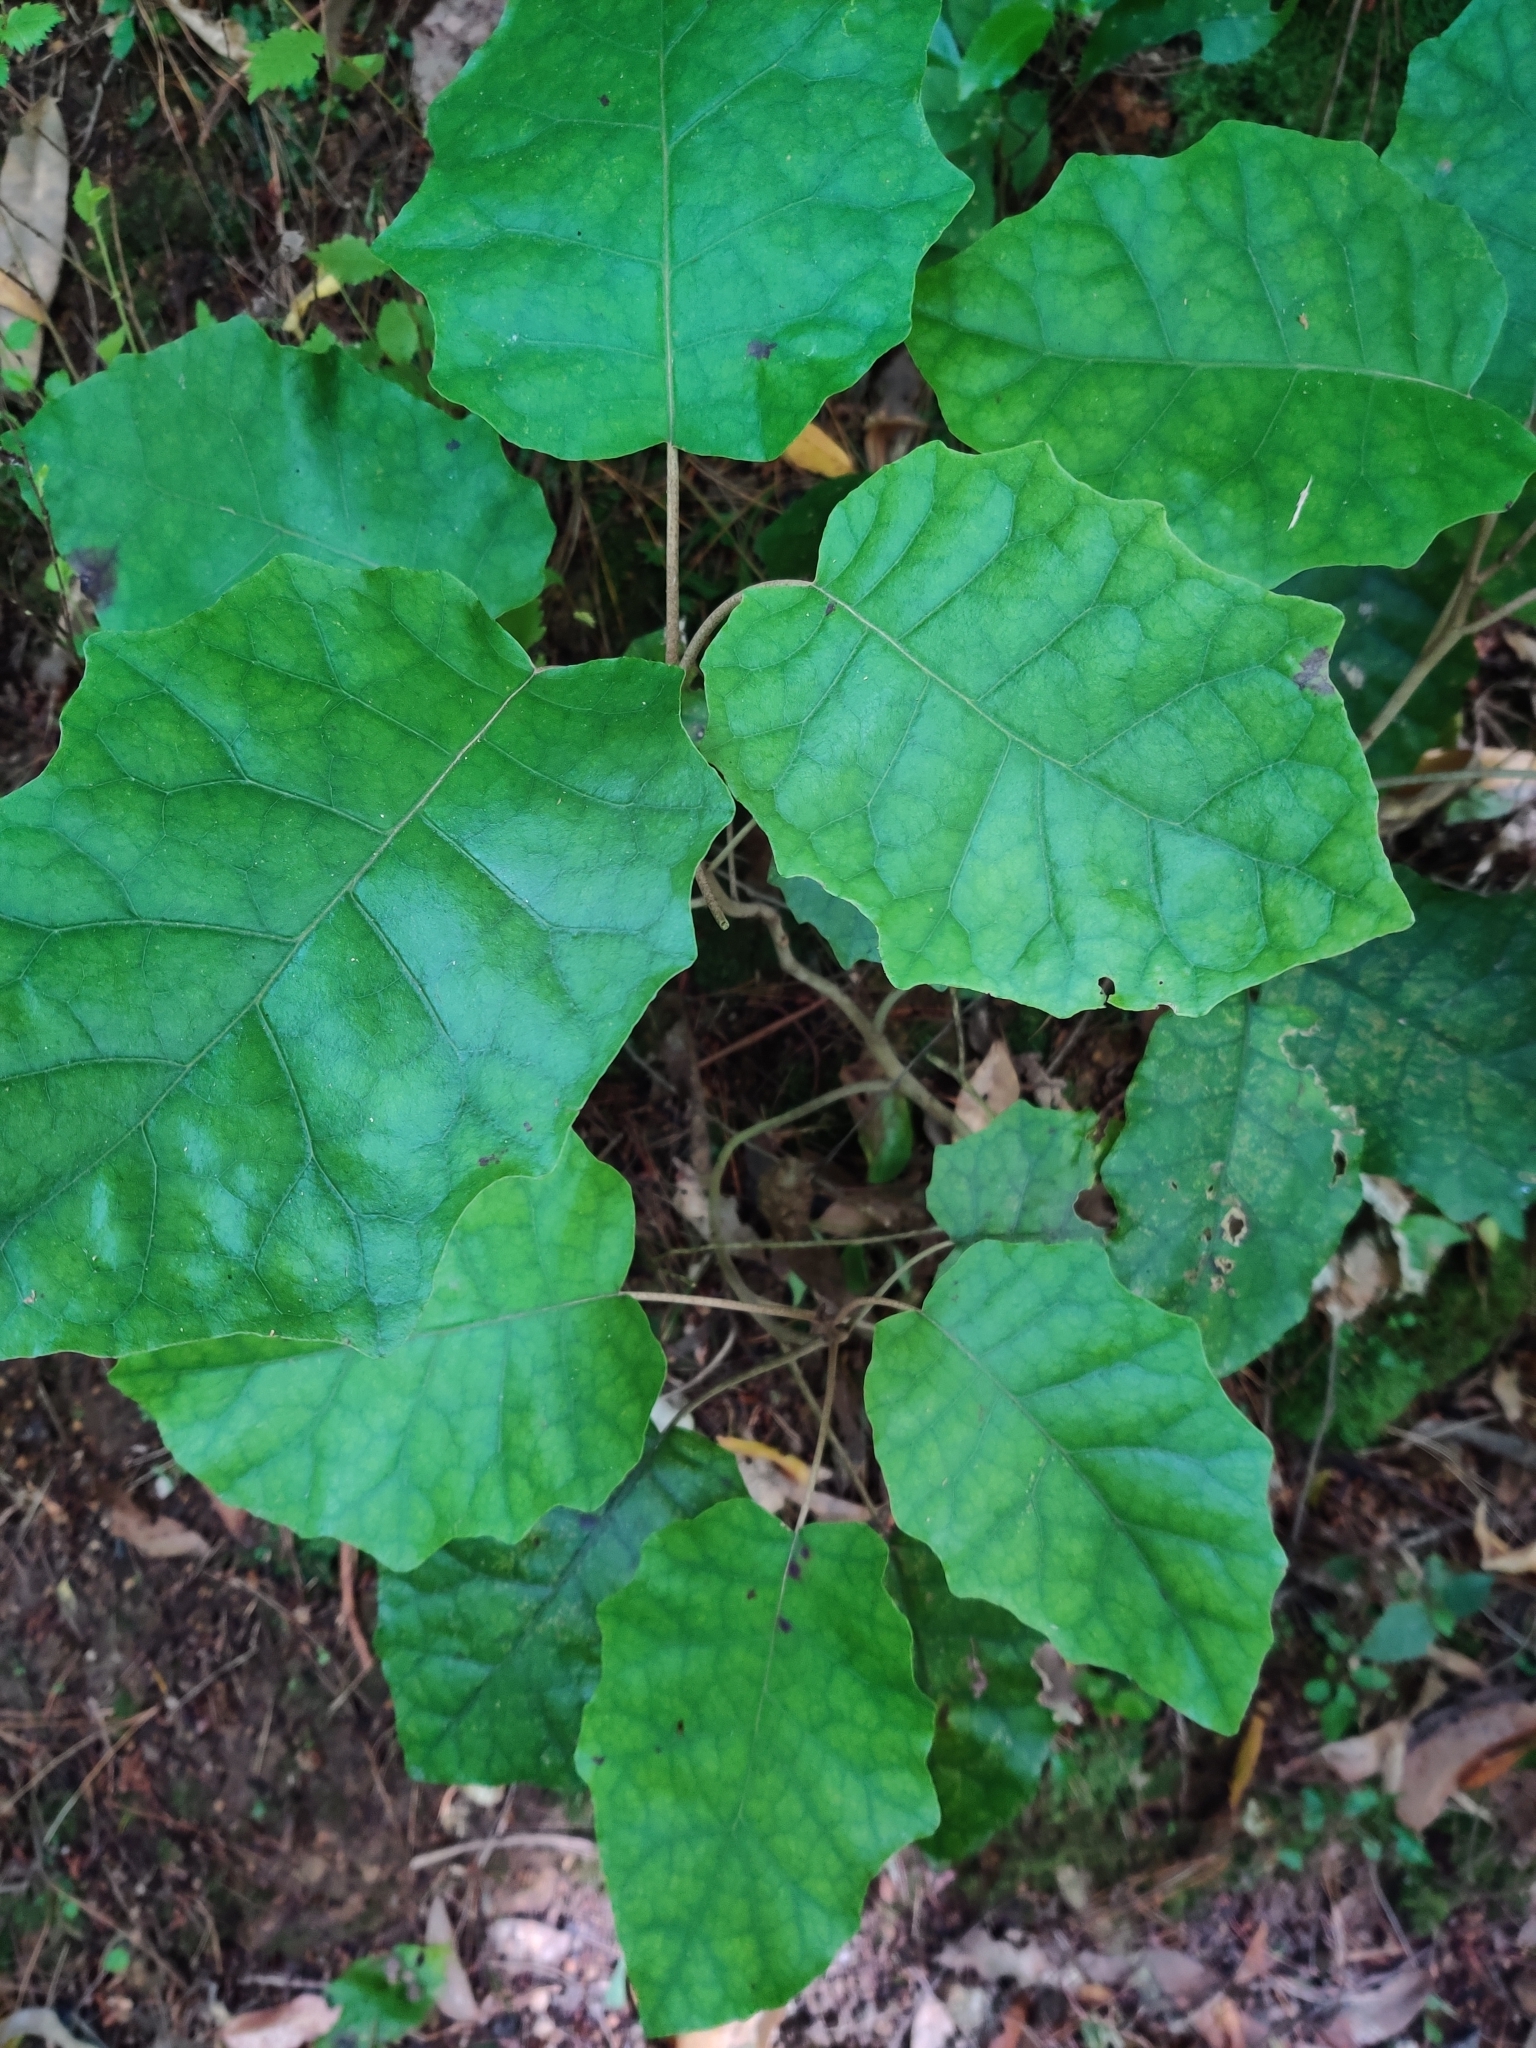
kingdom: Plantae
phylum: Tracheophyta
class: Magnoliopsida
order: Asterales
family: Asteraceae
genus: Brachyglottis
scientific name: Brachyglottis repanda
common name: Hedge ragwort
